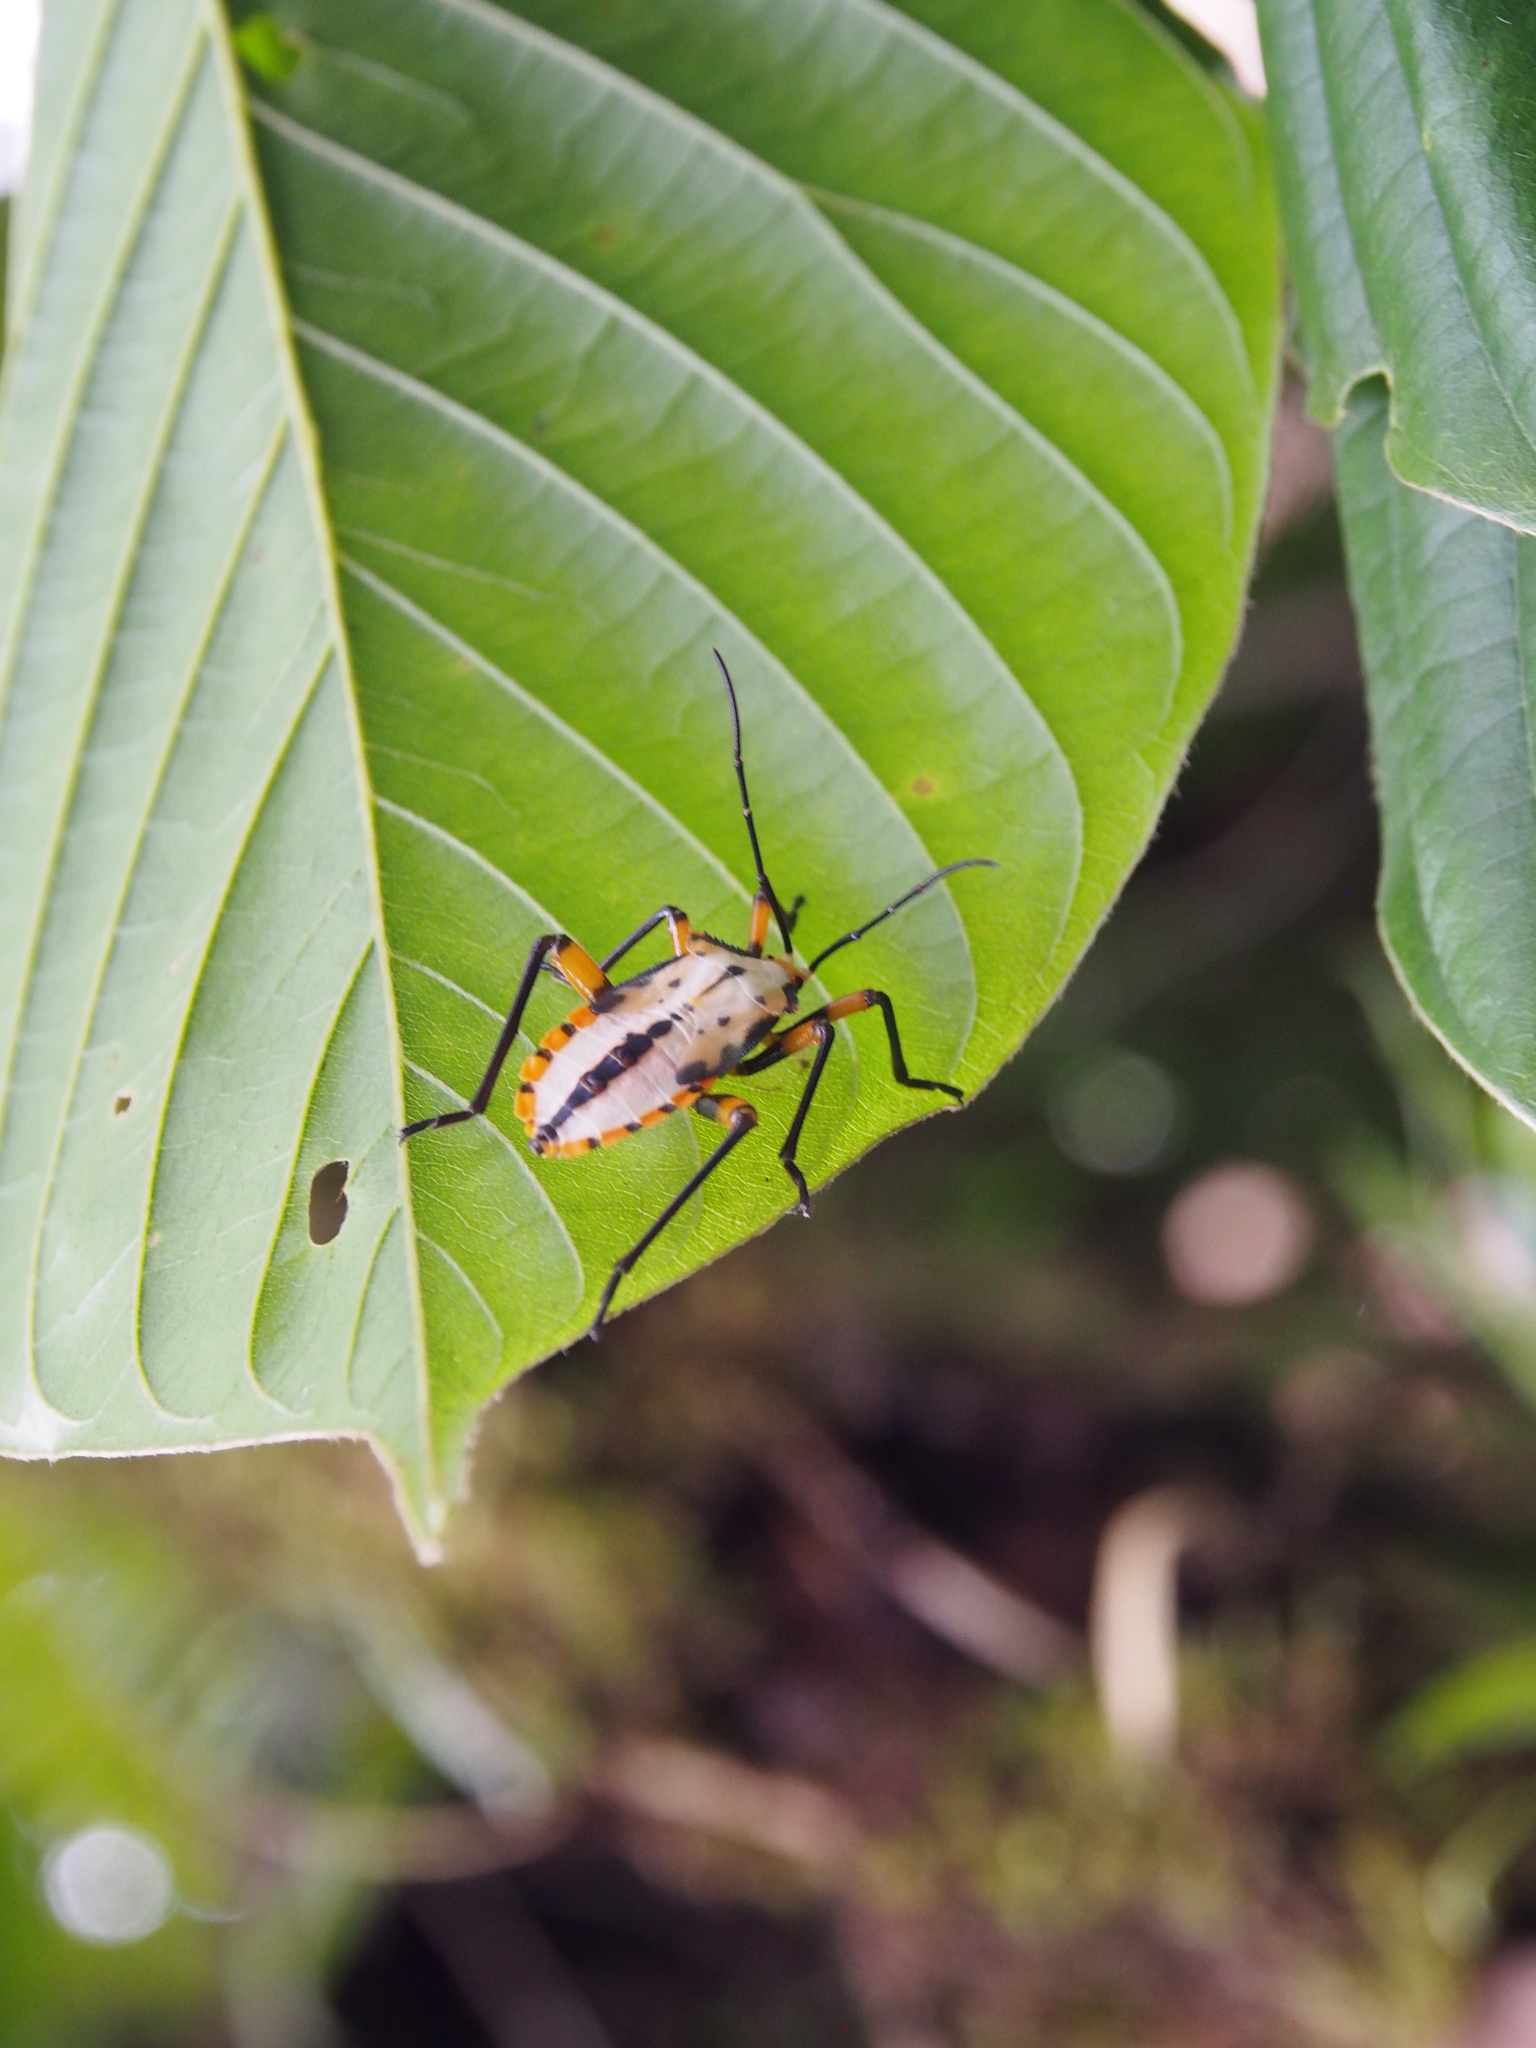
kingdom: Animalia
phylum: Arthropoda
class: Insecta
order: Hemiptera
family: Coreidae
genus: Thasopsis
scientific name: Thasopsis formidabilis
